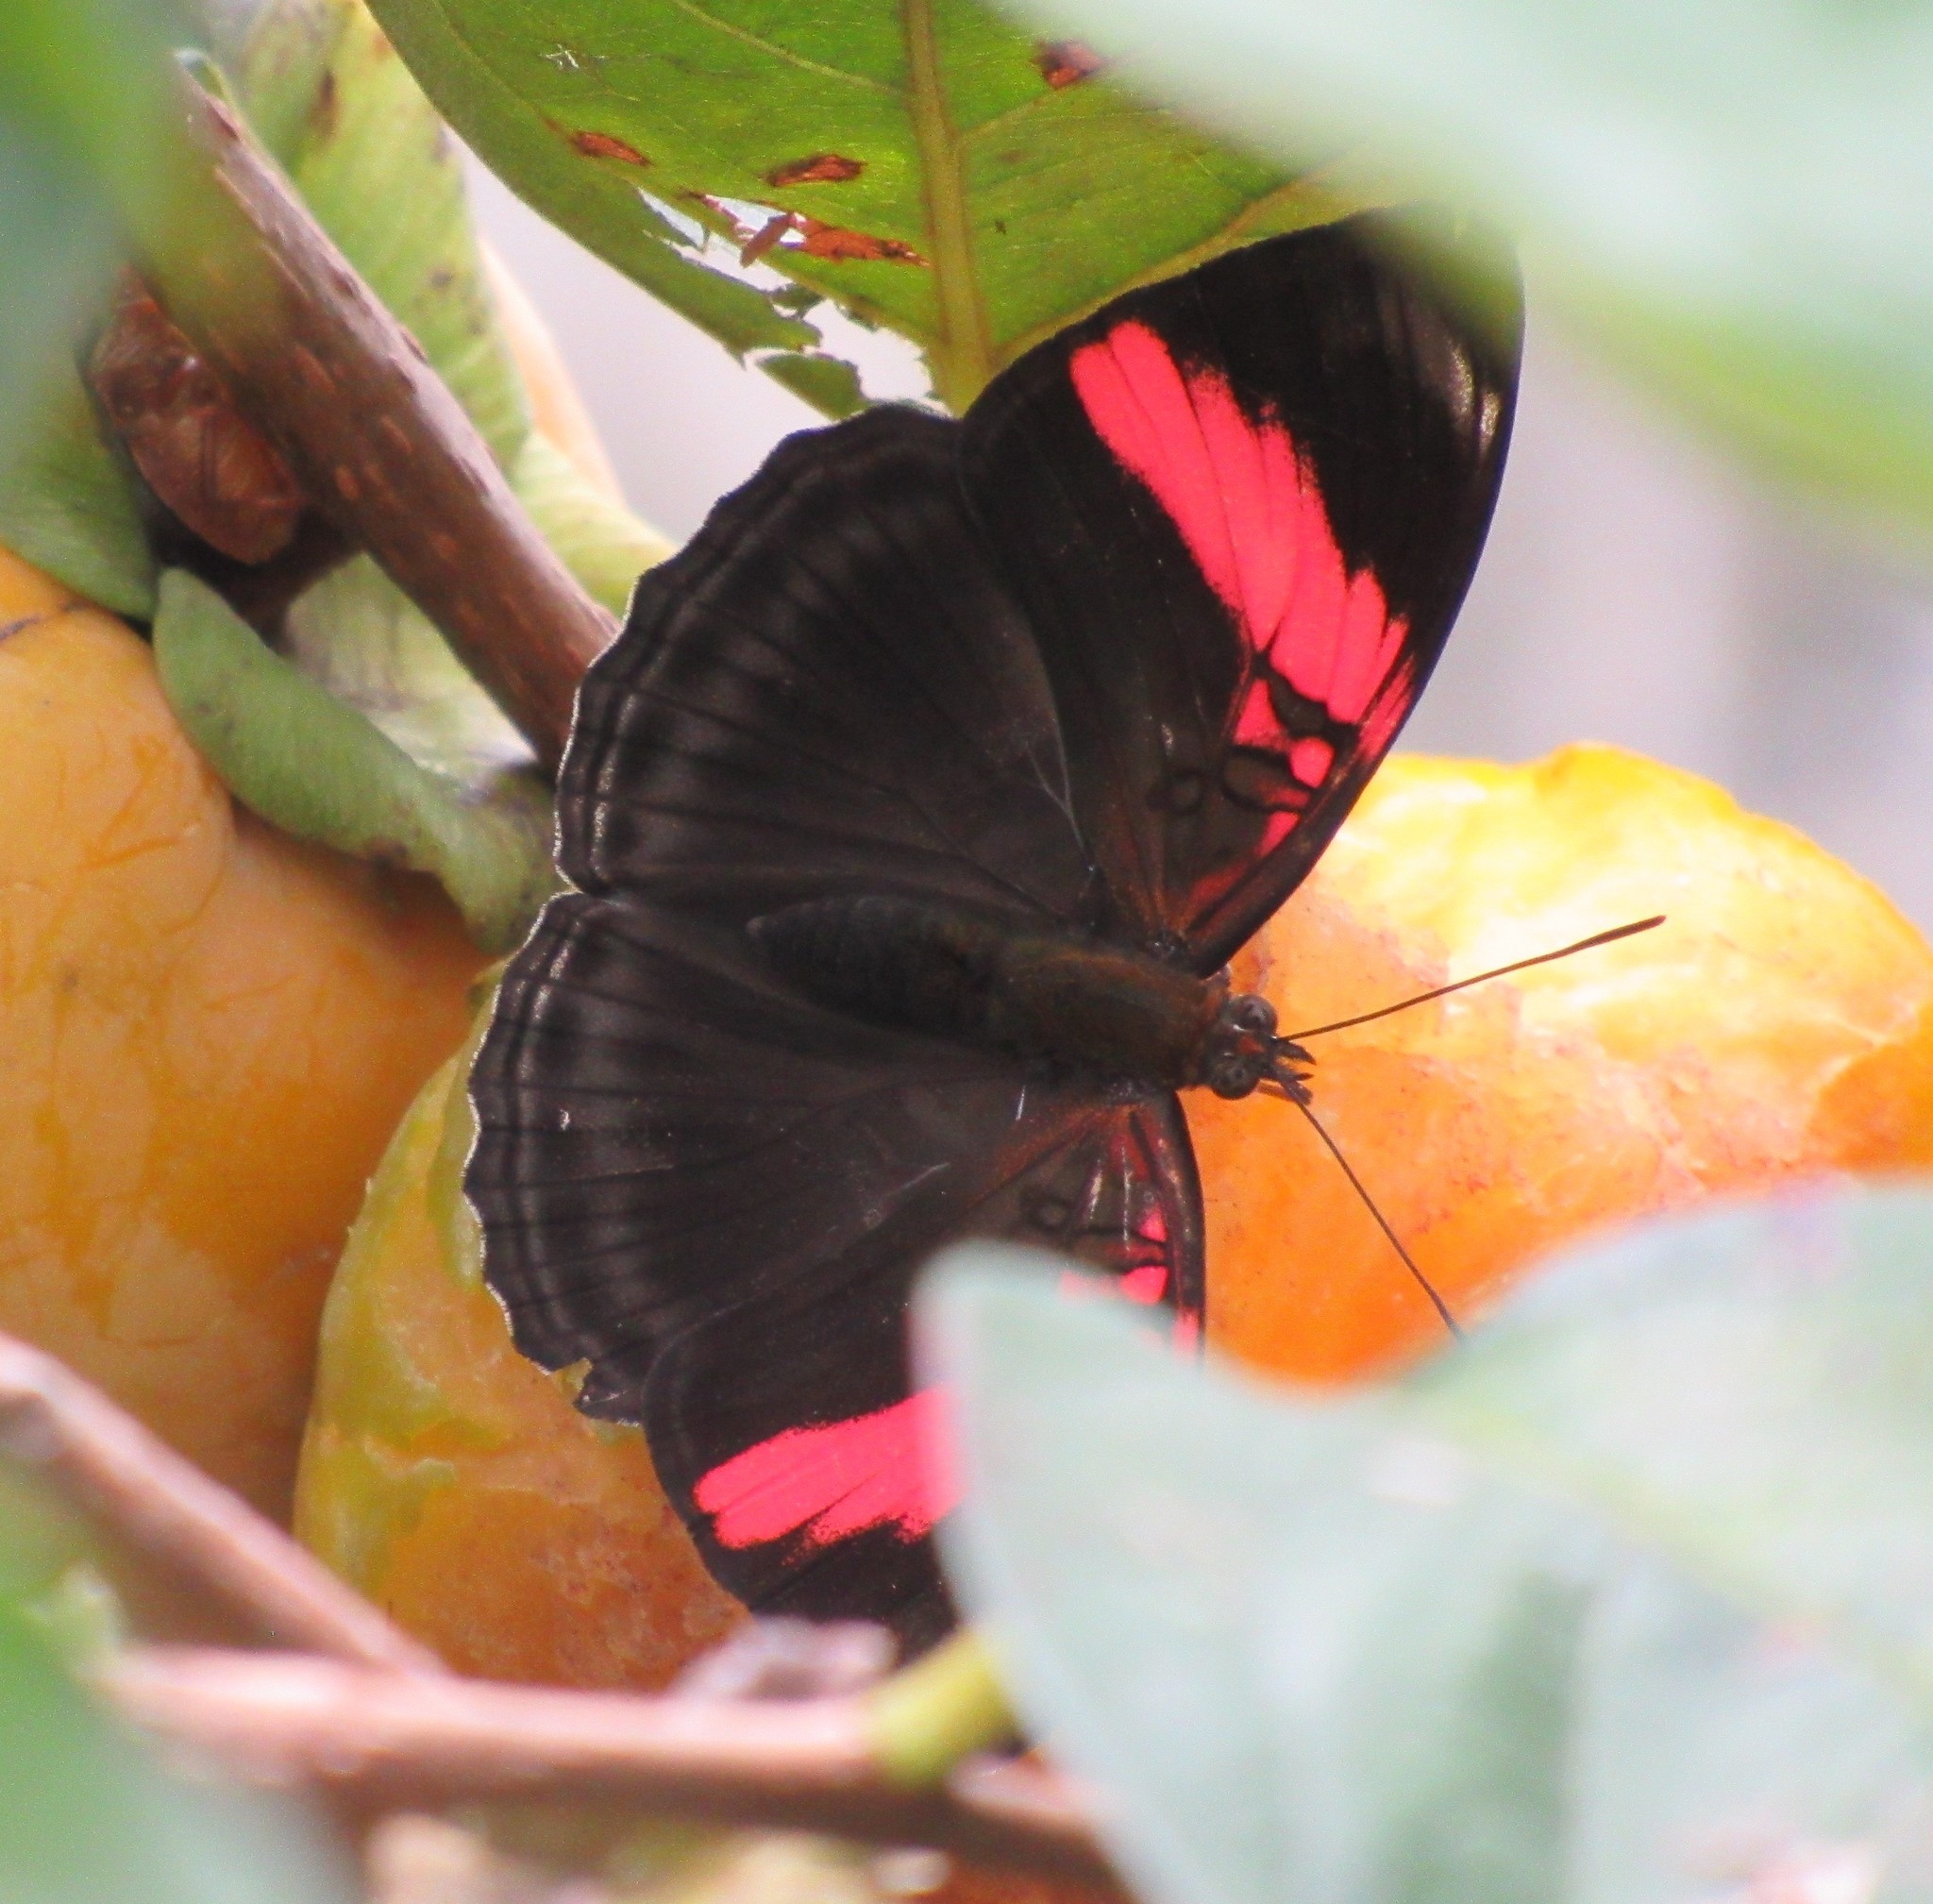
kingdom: Animalia
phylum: Arthropoda
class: Insecta
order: Lepidoptera
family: Nymphalidae
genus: Limenitis
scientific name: Limenitis isis
